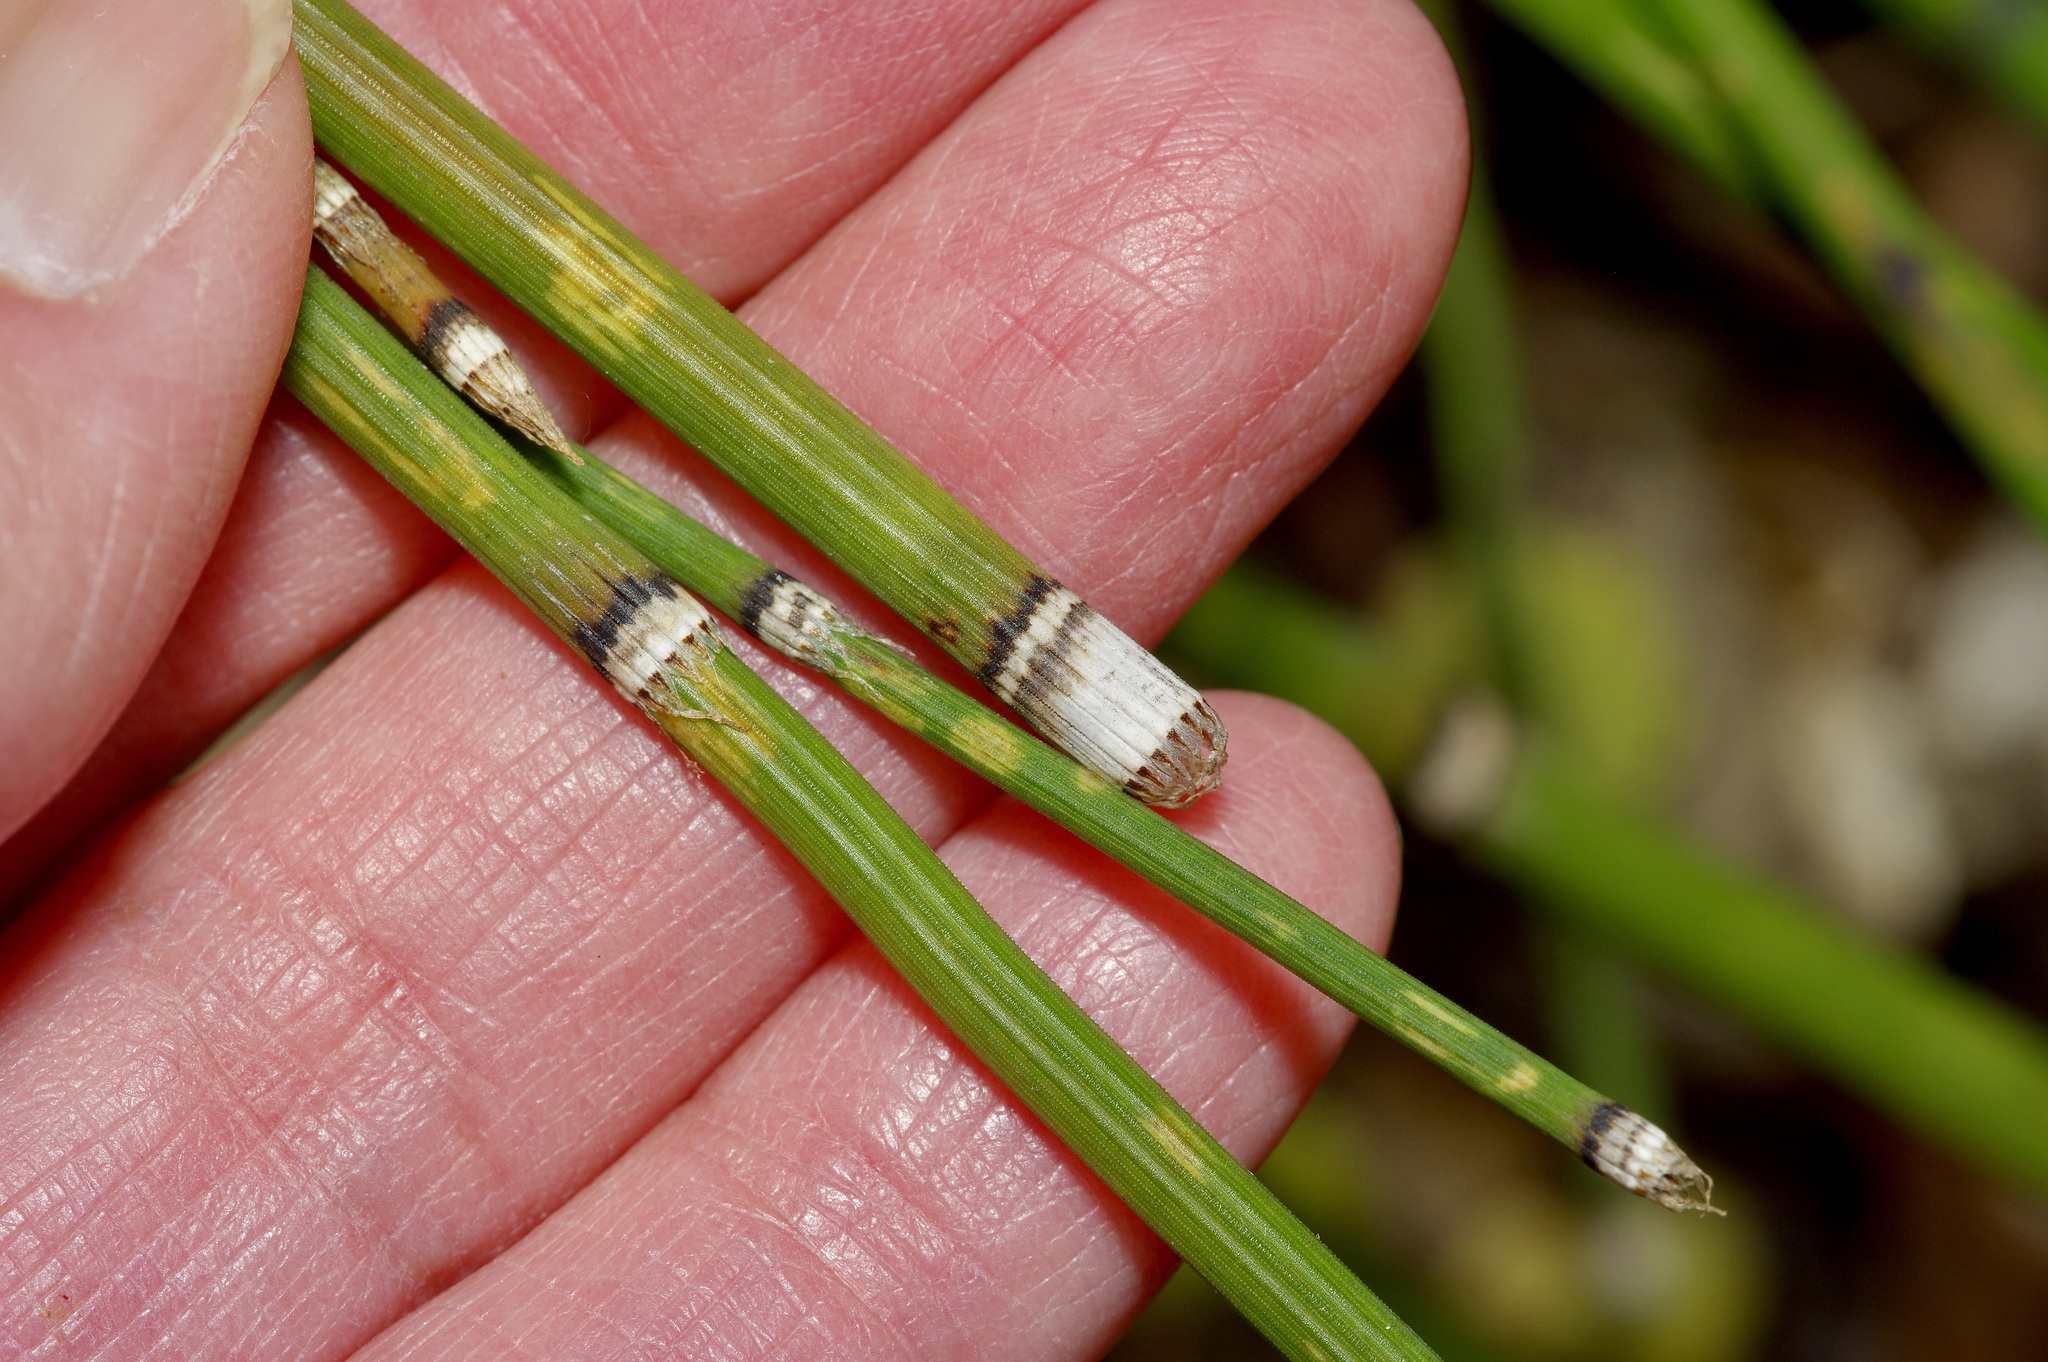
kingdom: Plantae
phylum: Tracheophyta
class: Polypodiopsida
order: Equisetales
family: Equisetaceae
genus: Equisetum
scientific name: Equisetum hyemale
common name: Rough horsetail
